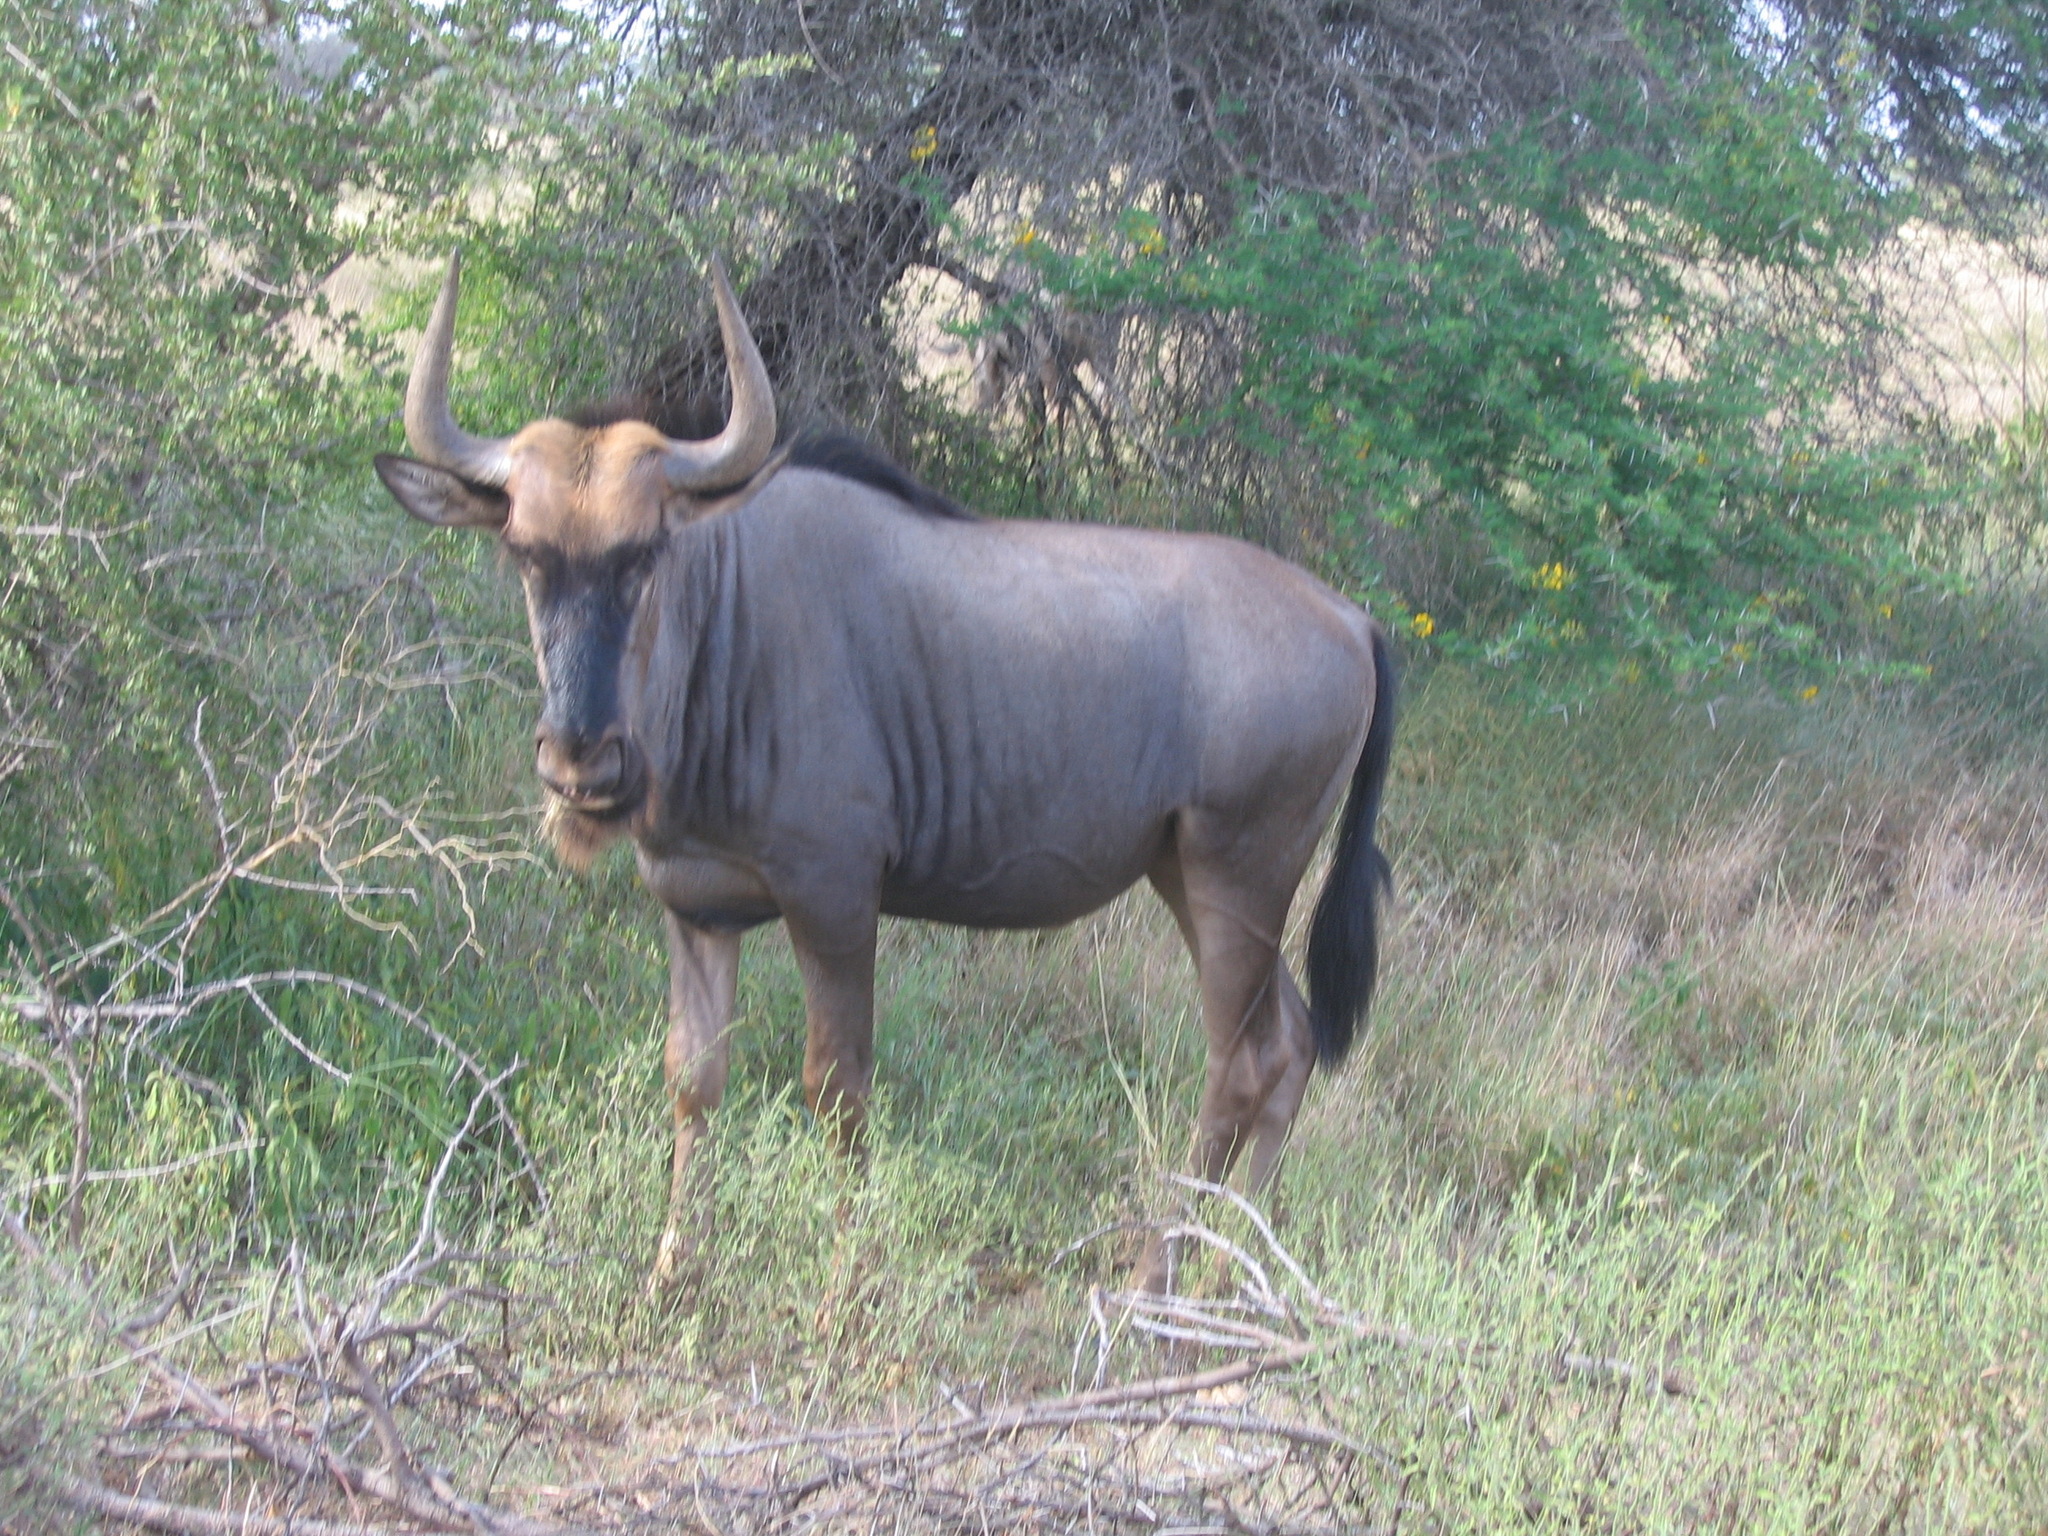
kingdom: Animalia
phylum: Chordata
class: Mammalia
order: Artiodactyla
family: Bovidae
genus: Connochaetes
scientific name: Connochaetes taurinus
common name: Blue wildebeest
